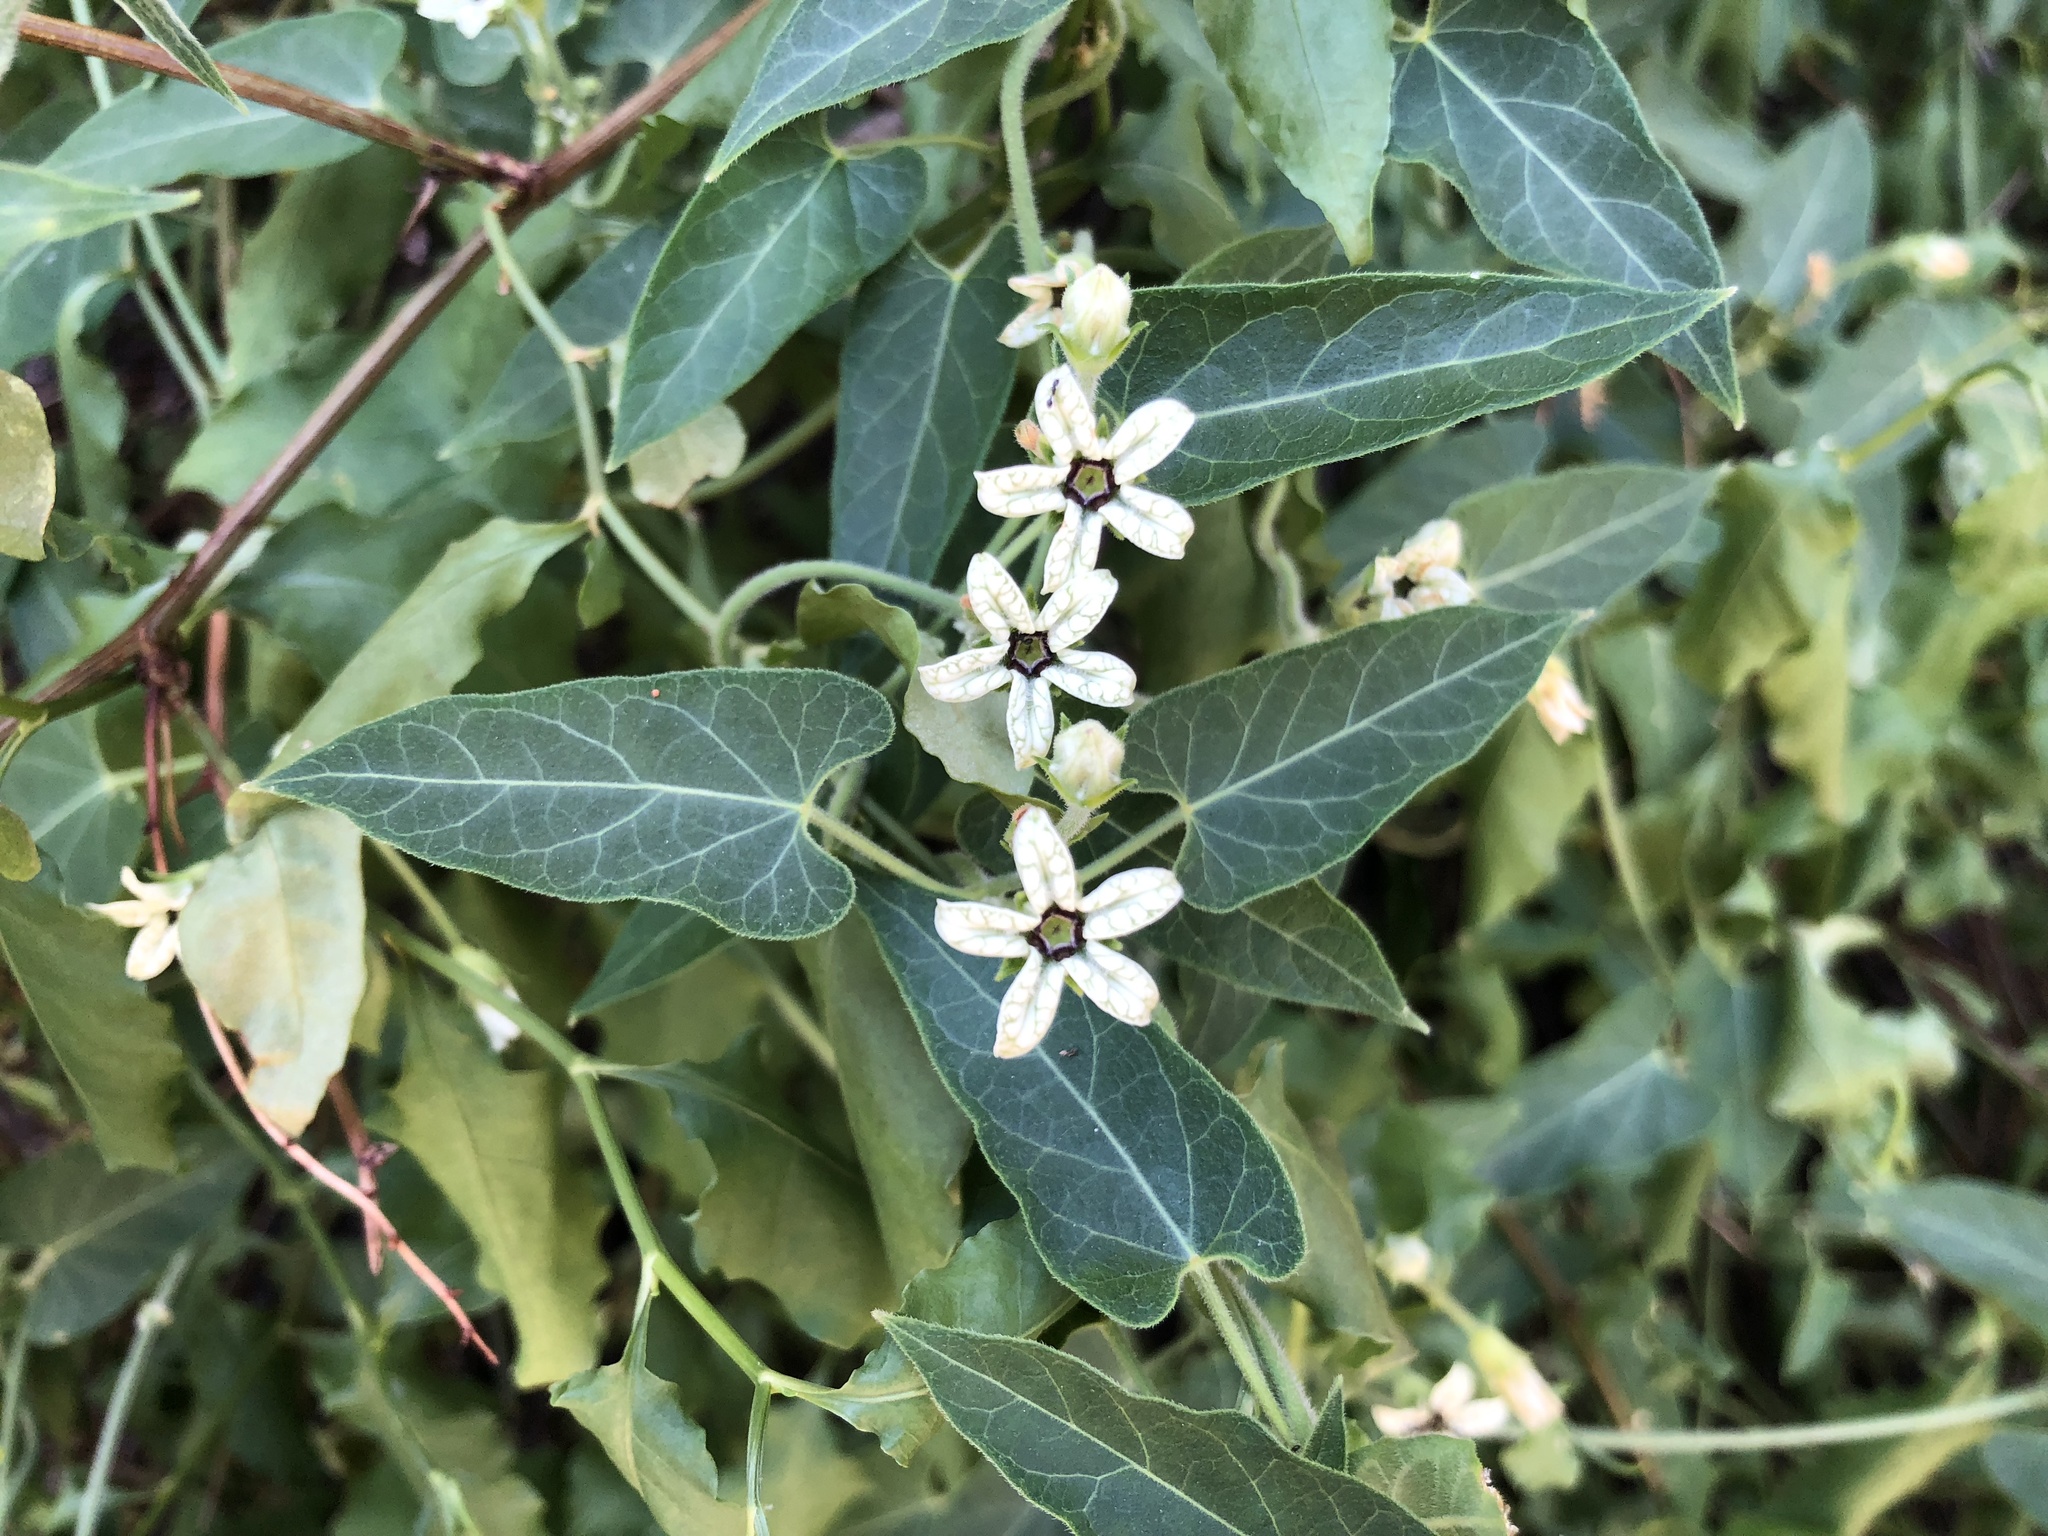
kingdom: Plantae
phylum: Tracheophyta
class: Magnoliopsida
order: Gentianales
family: Apocynaceae
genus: Gonolobus
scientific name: Gonolobus arizonicus
